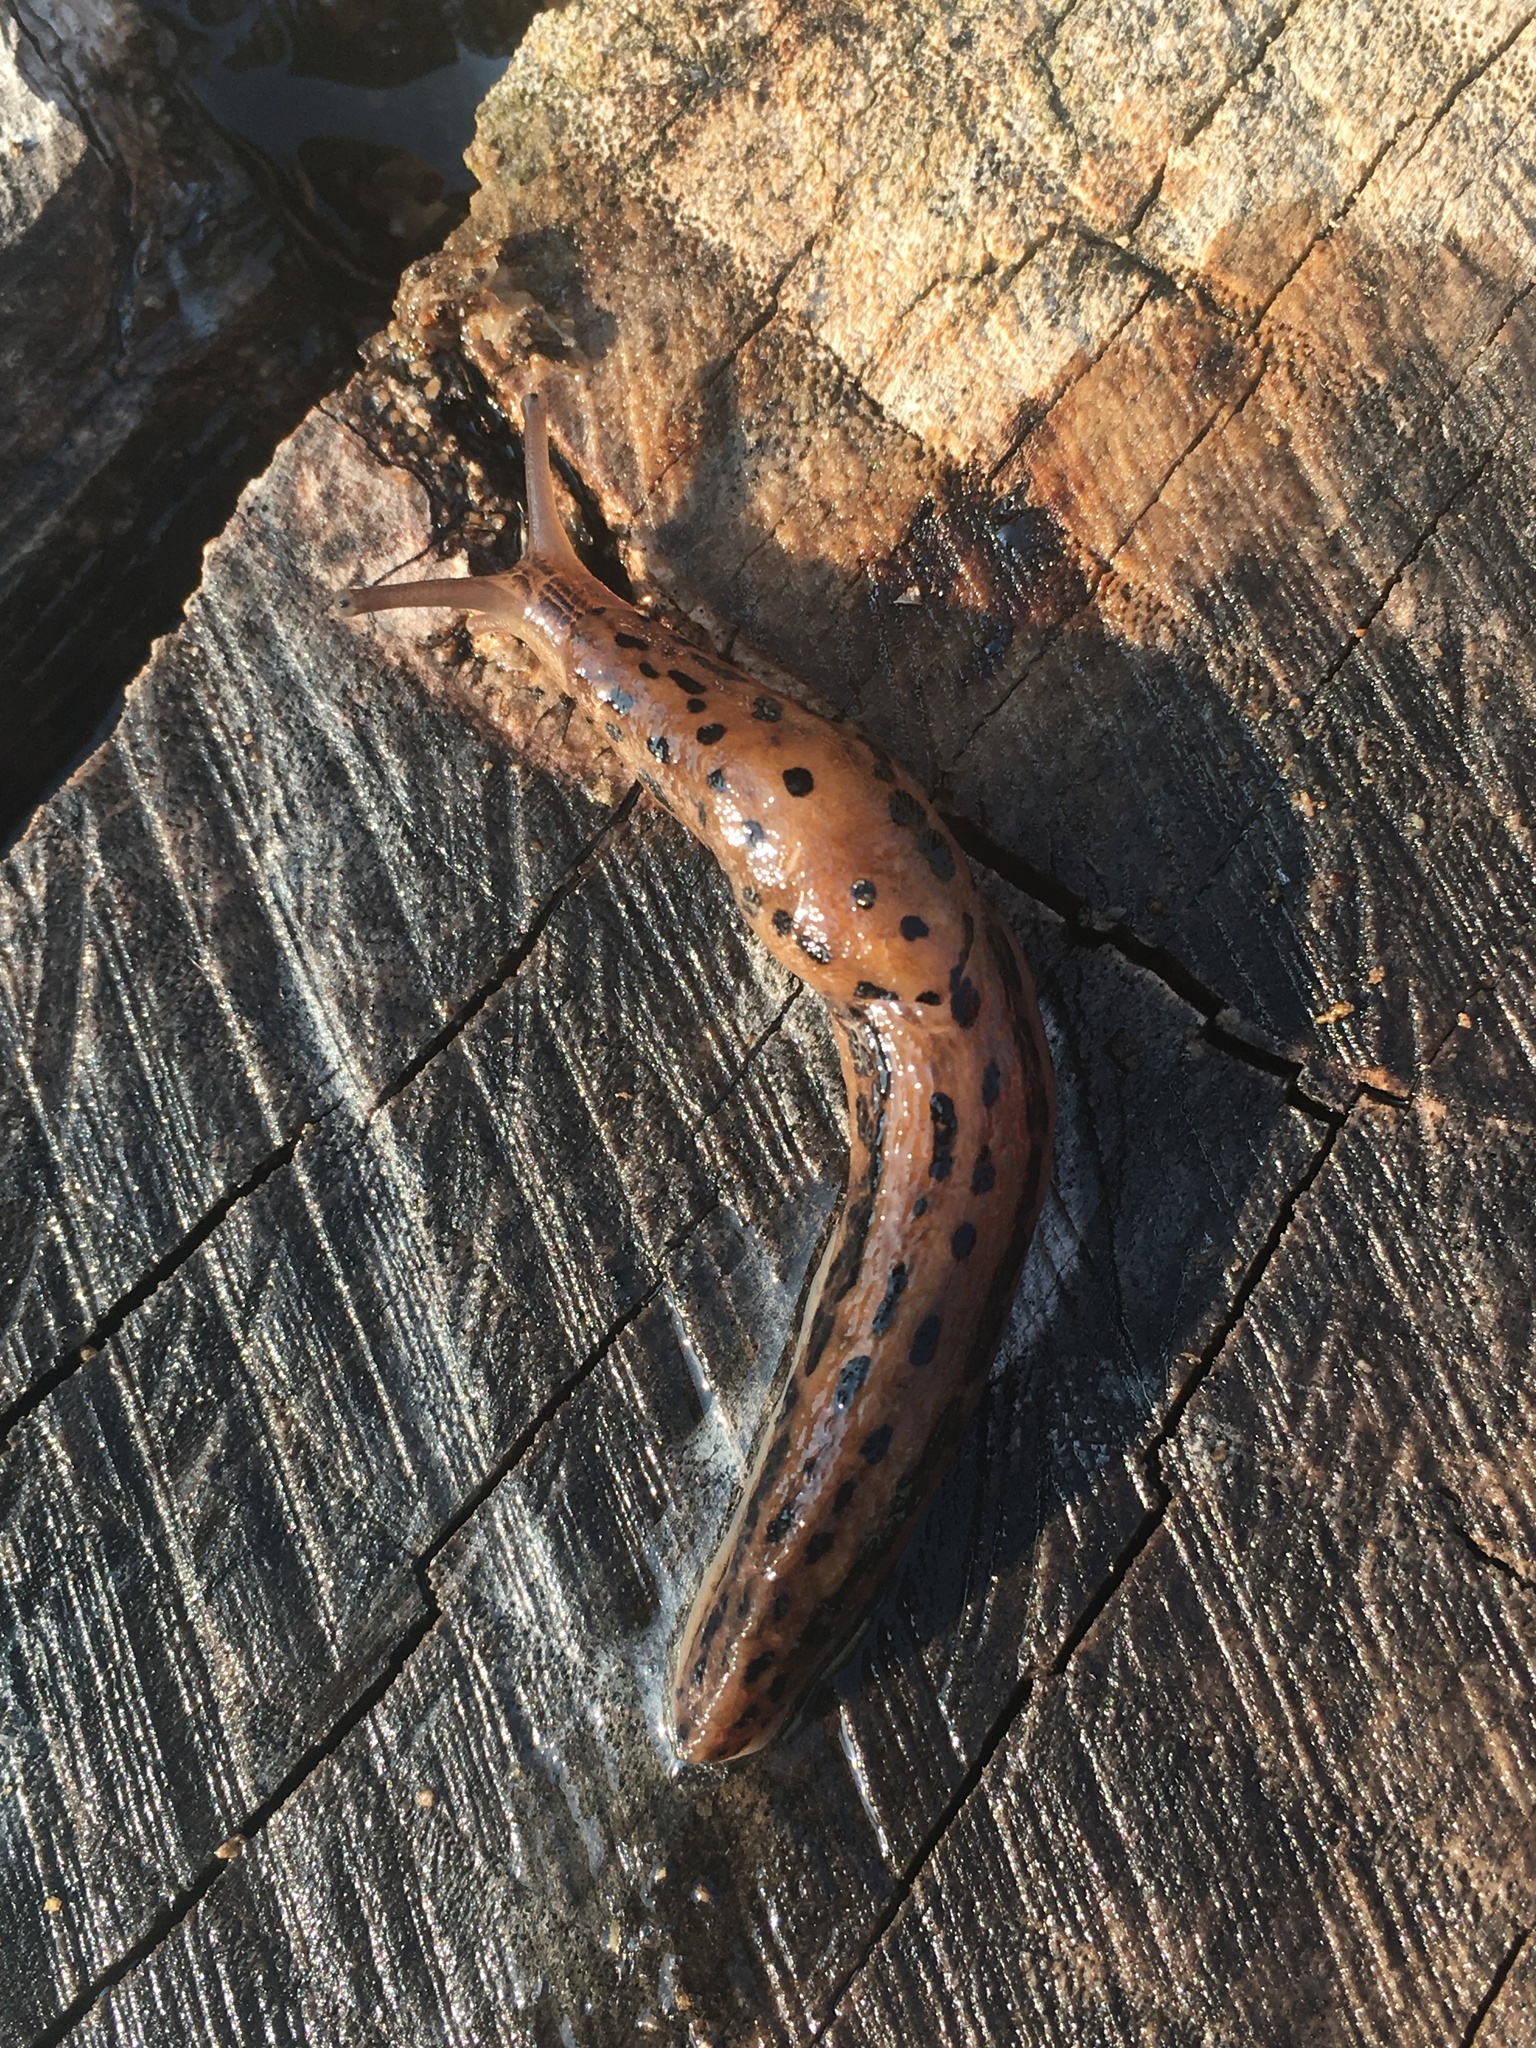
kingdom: Animalia
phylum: Mollusca
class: Gastropoda
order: Stylommatophora
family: Limacidae
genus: Limax
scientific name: Limax maximus
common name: Great grey slug
